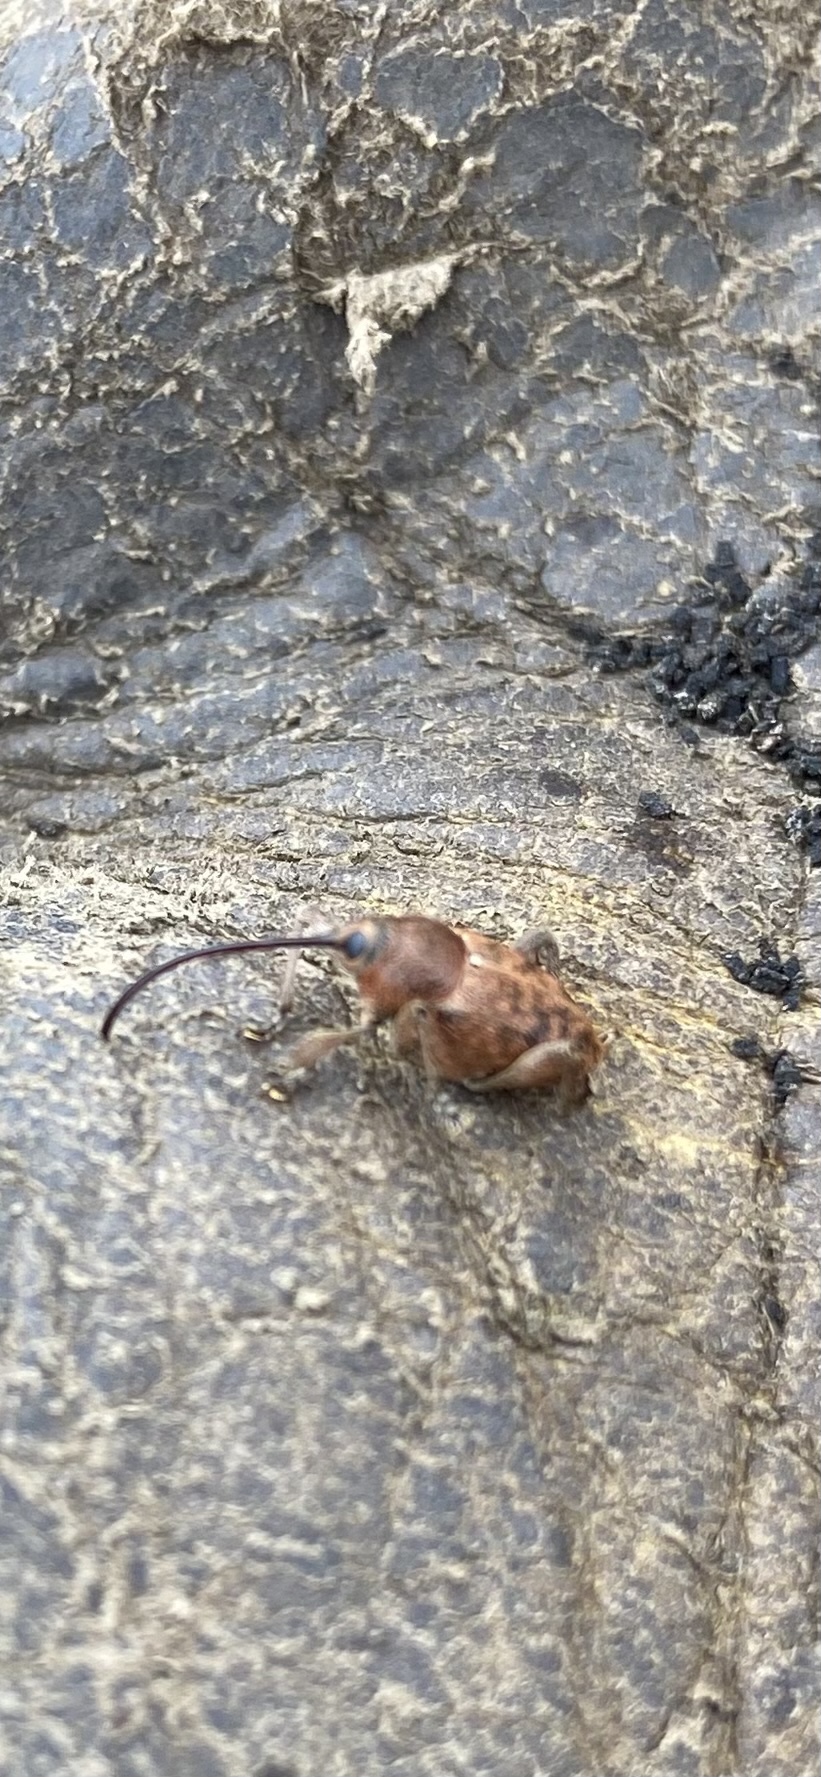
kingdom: Animalia
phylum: Arthropoda
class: Insecta
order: Coleoptera
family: Curculionidae
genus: Curculio
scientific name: Curculio glandium
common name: Acorn weevil
